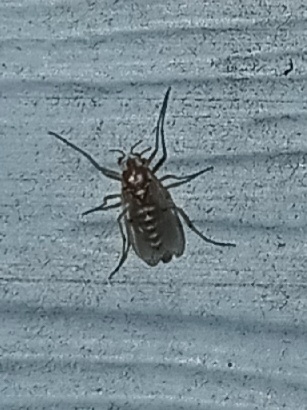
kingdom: Animalia
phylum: Arthropoda
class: Insecta
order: Diptera
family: Chironomidae
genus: Procladius
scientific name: Procladius bellus
